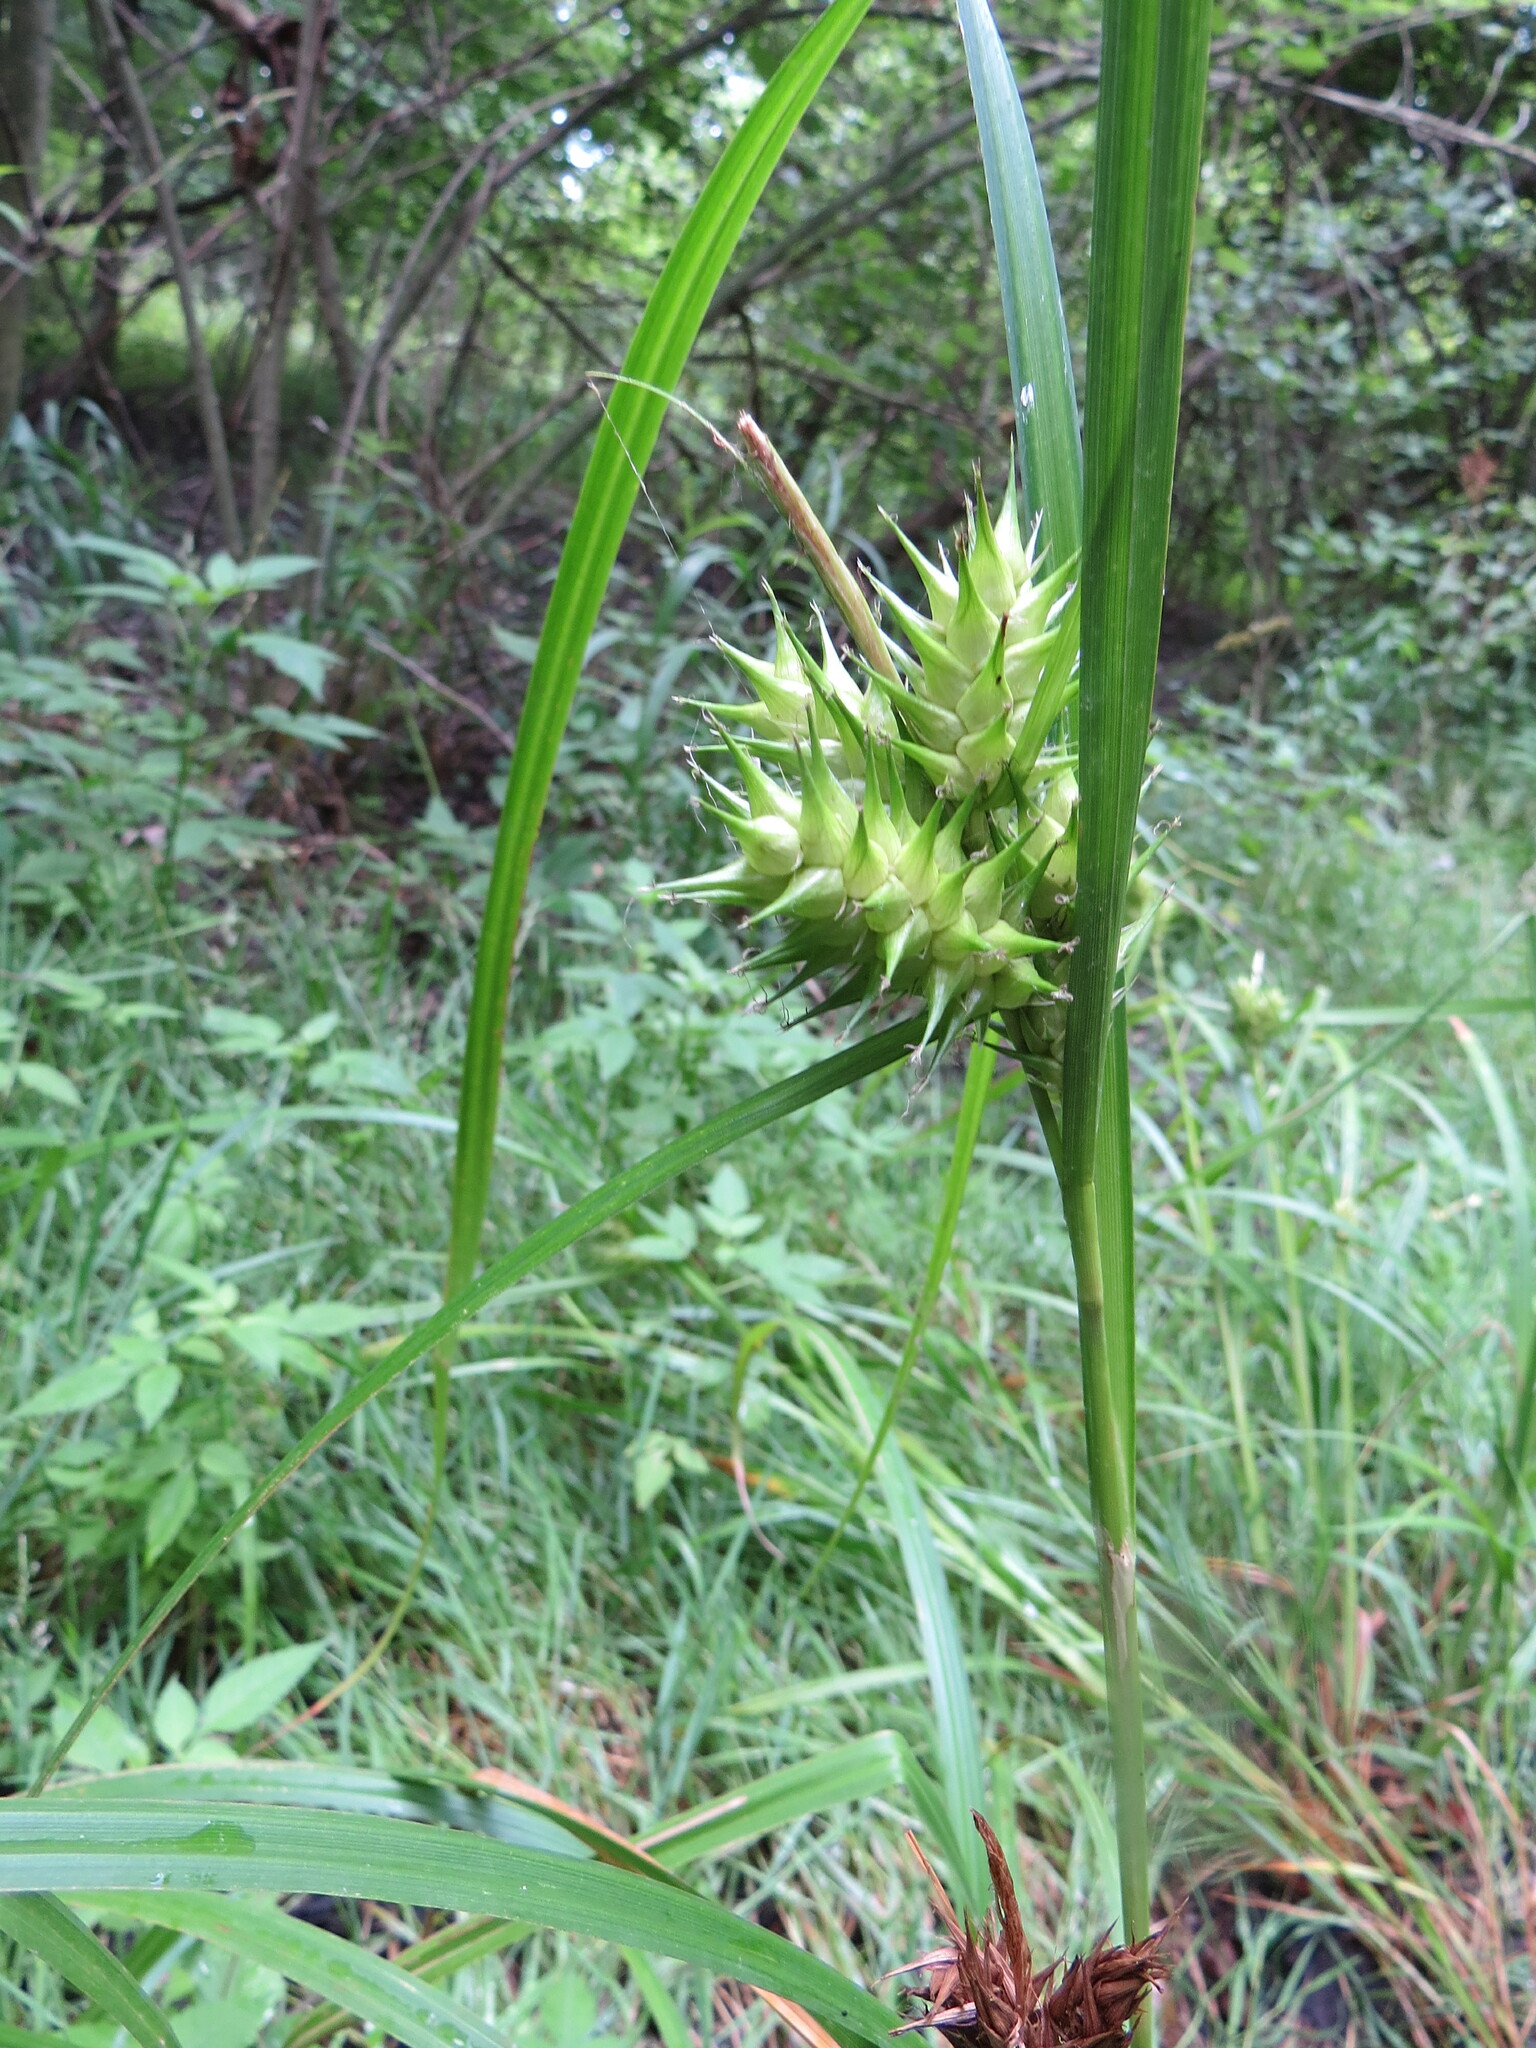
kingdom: Plantae
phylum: Tracheophyta
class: Liliopsida
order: Poales
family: Cyperaceae
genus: Carex
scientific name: Carex lupulina
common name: Hop sedge
